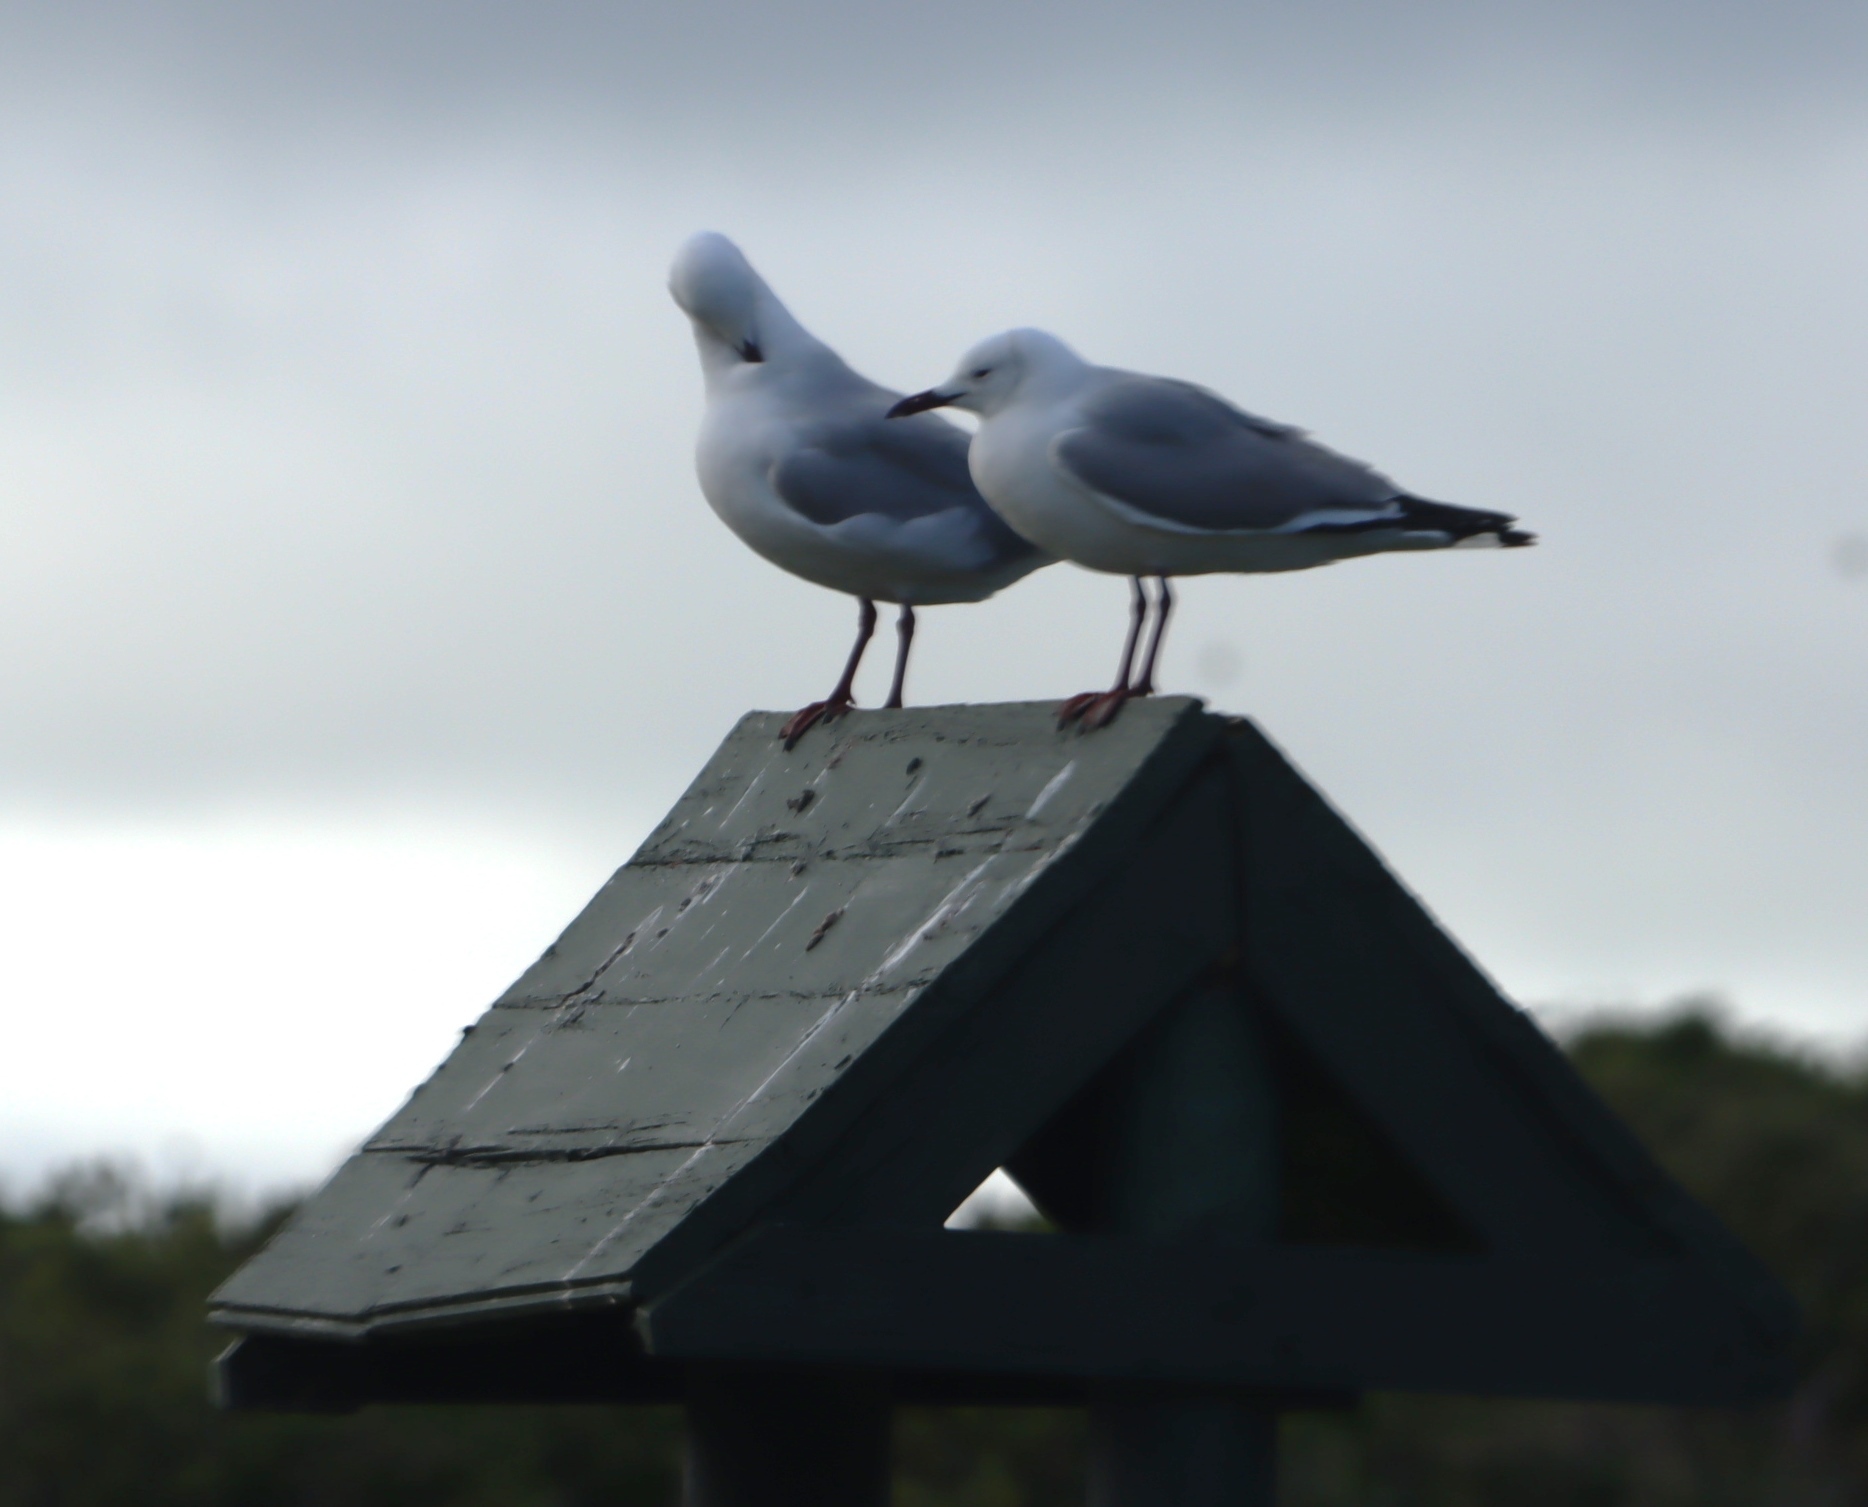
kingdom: Animalia
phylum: Chordata
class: Aves
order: Charadriiformes
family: Laridae
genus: Chroicocephalus
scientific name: Chroicocephalus hartlaubii
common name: Hartlaub's gull
